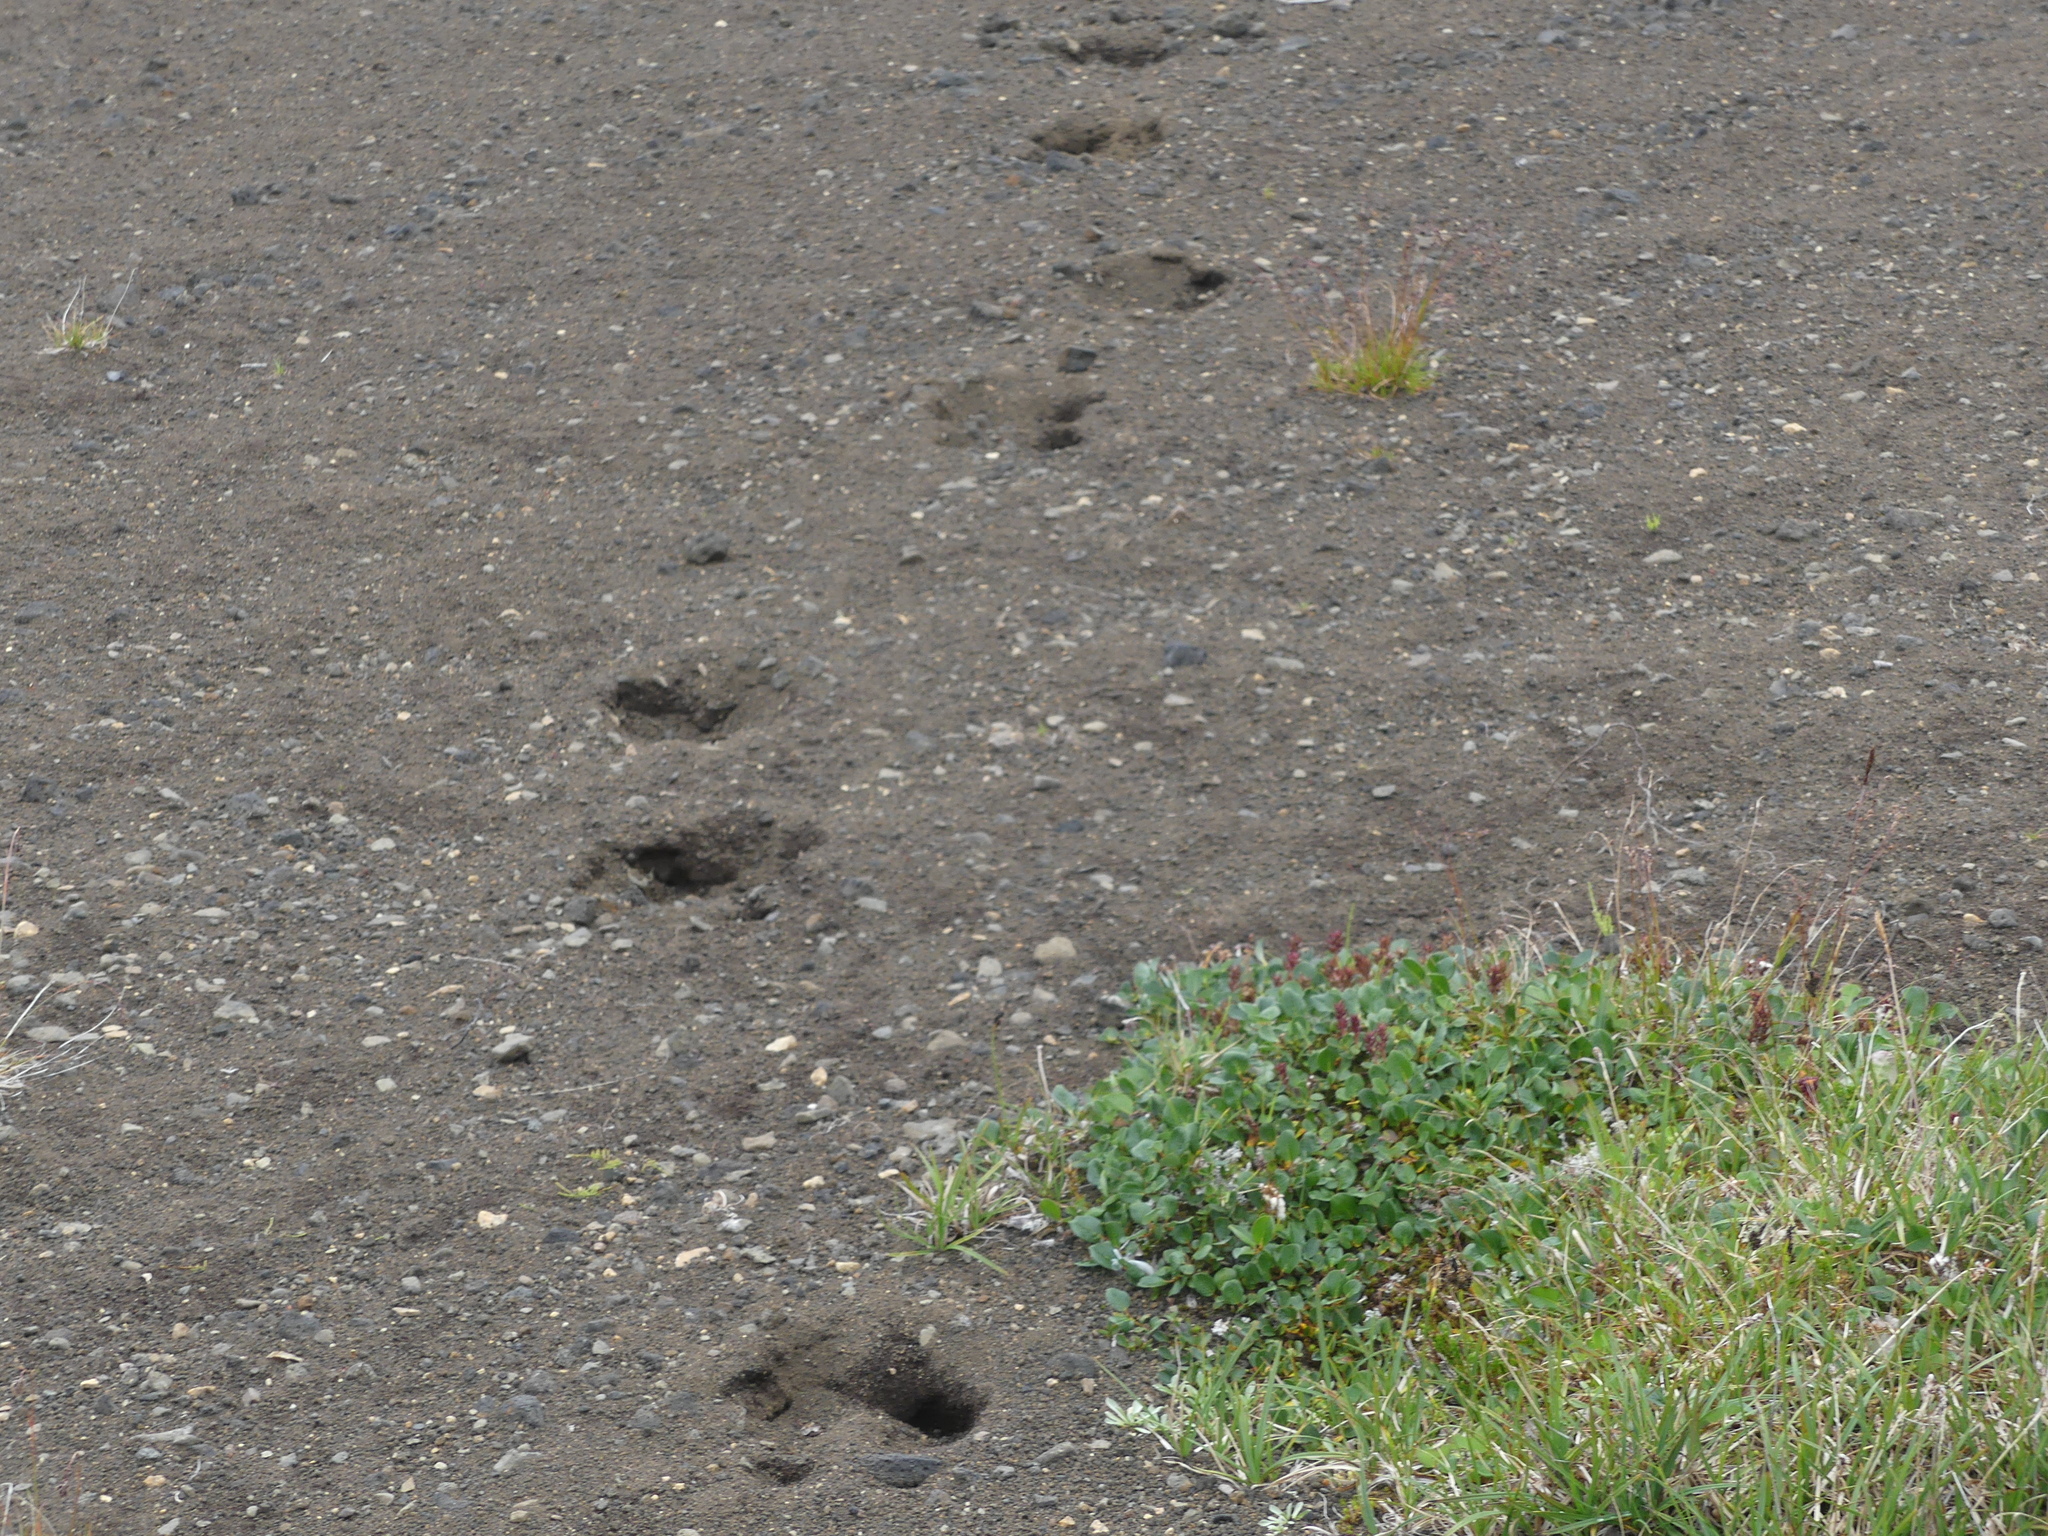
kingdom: Animalia
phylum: Chordata
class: Mammalia
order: Artiodactyla
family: Cervidae
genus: Rangifer
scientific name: Rangifer tarandus
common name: Reindeer
